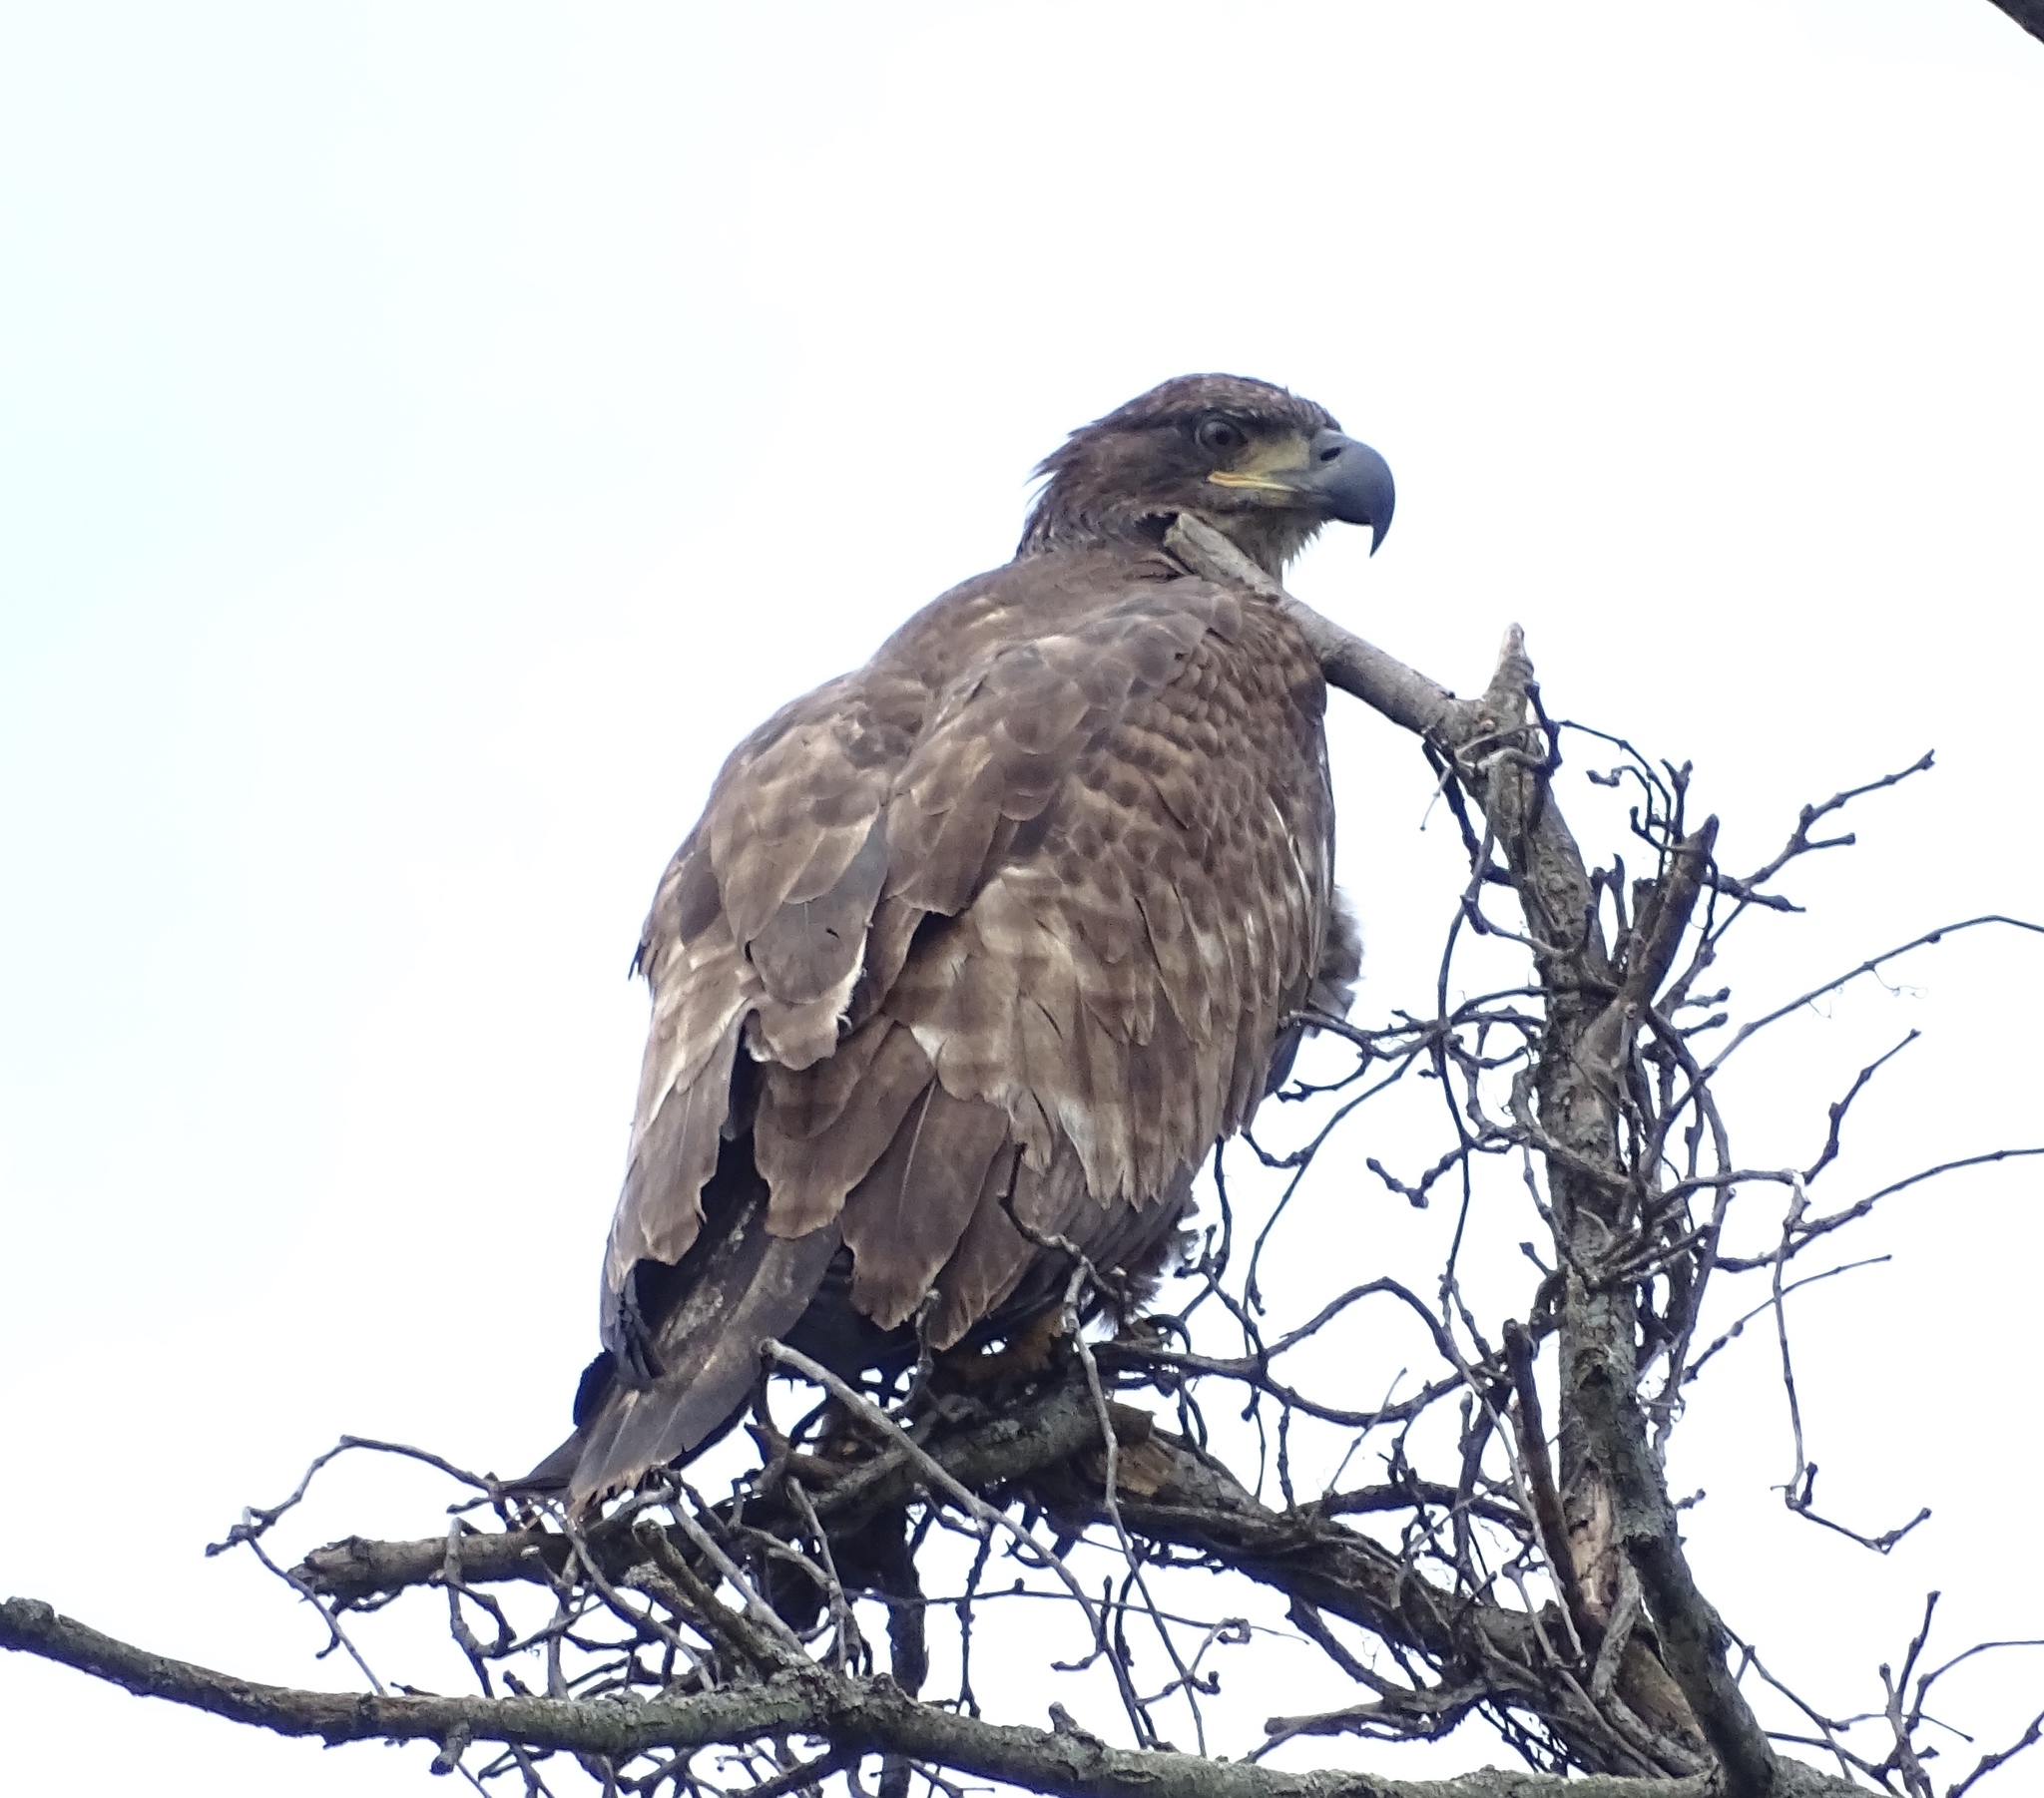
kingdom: Animalia
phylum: Chordata
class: Aves
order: Accipitriformes
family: Accipitridae
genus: Haliaeetus
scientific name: Haliaeetus leucocephalus
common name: Bald eagle
